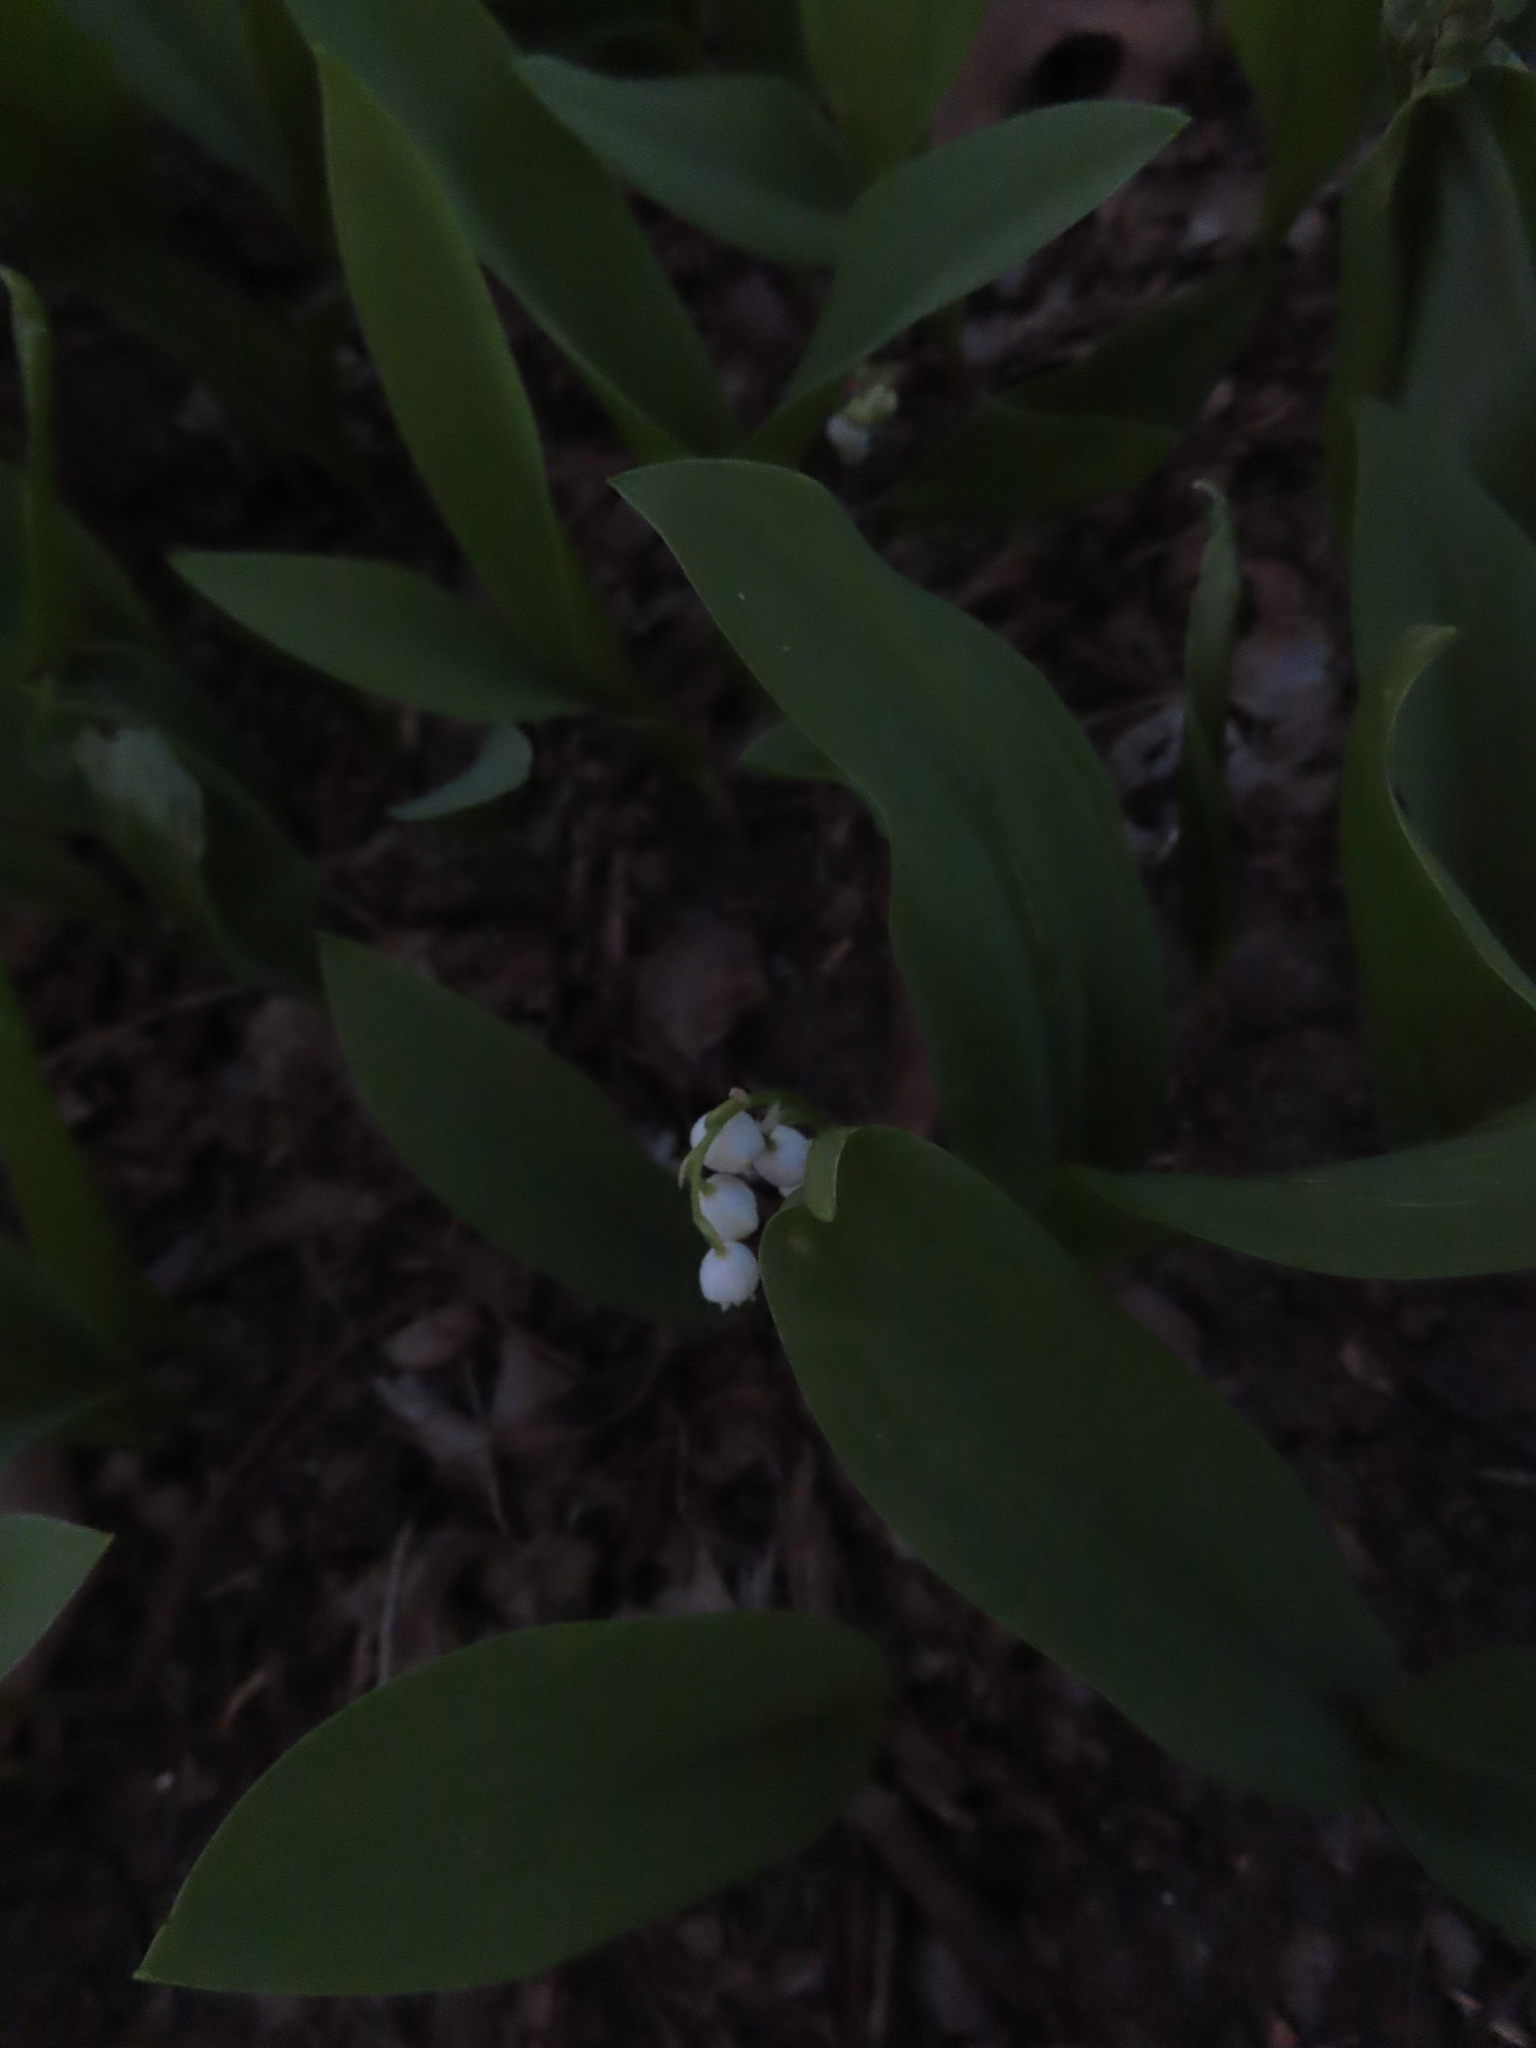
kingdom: Plantae
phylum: Tracheophyta
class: Liliopsida
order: Asparagales
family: Asparagaceae
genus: Convallaria
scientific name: Convallaria majalis
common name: Lily-of-the-valley
